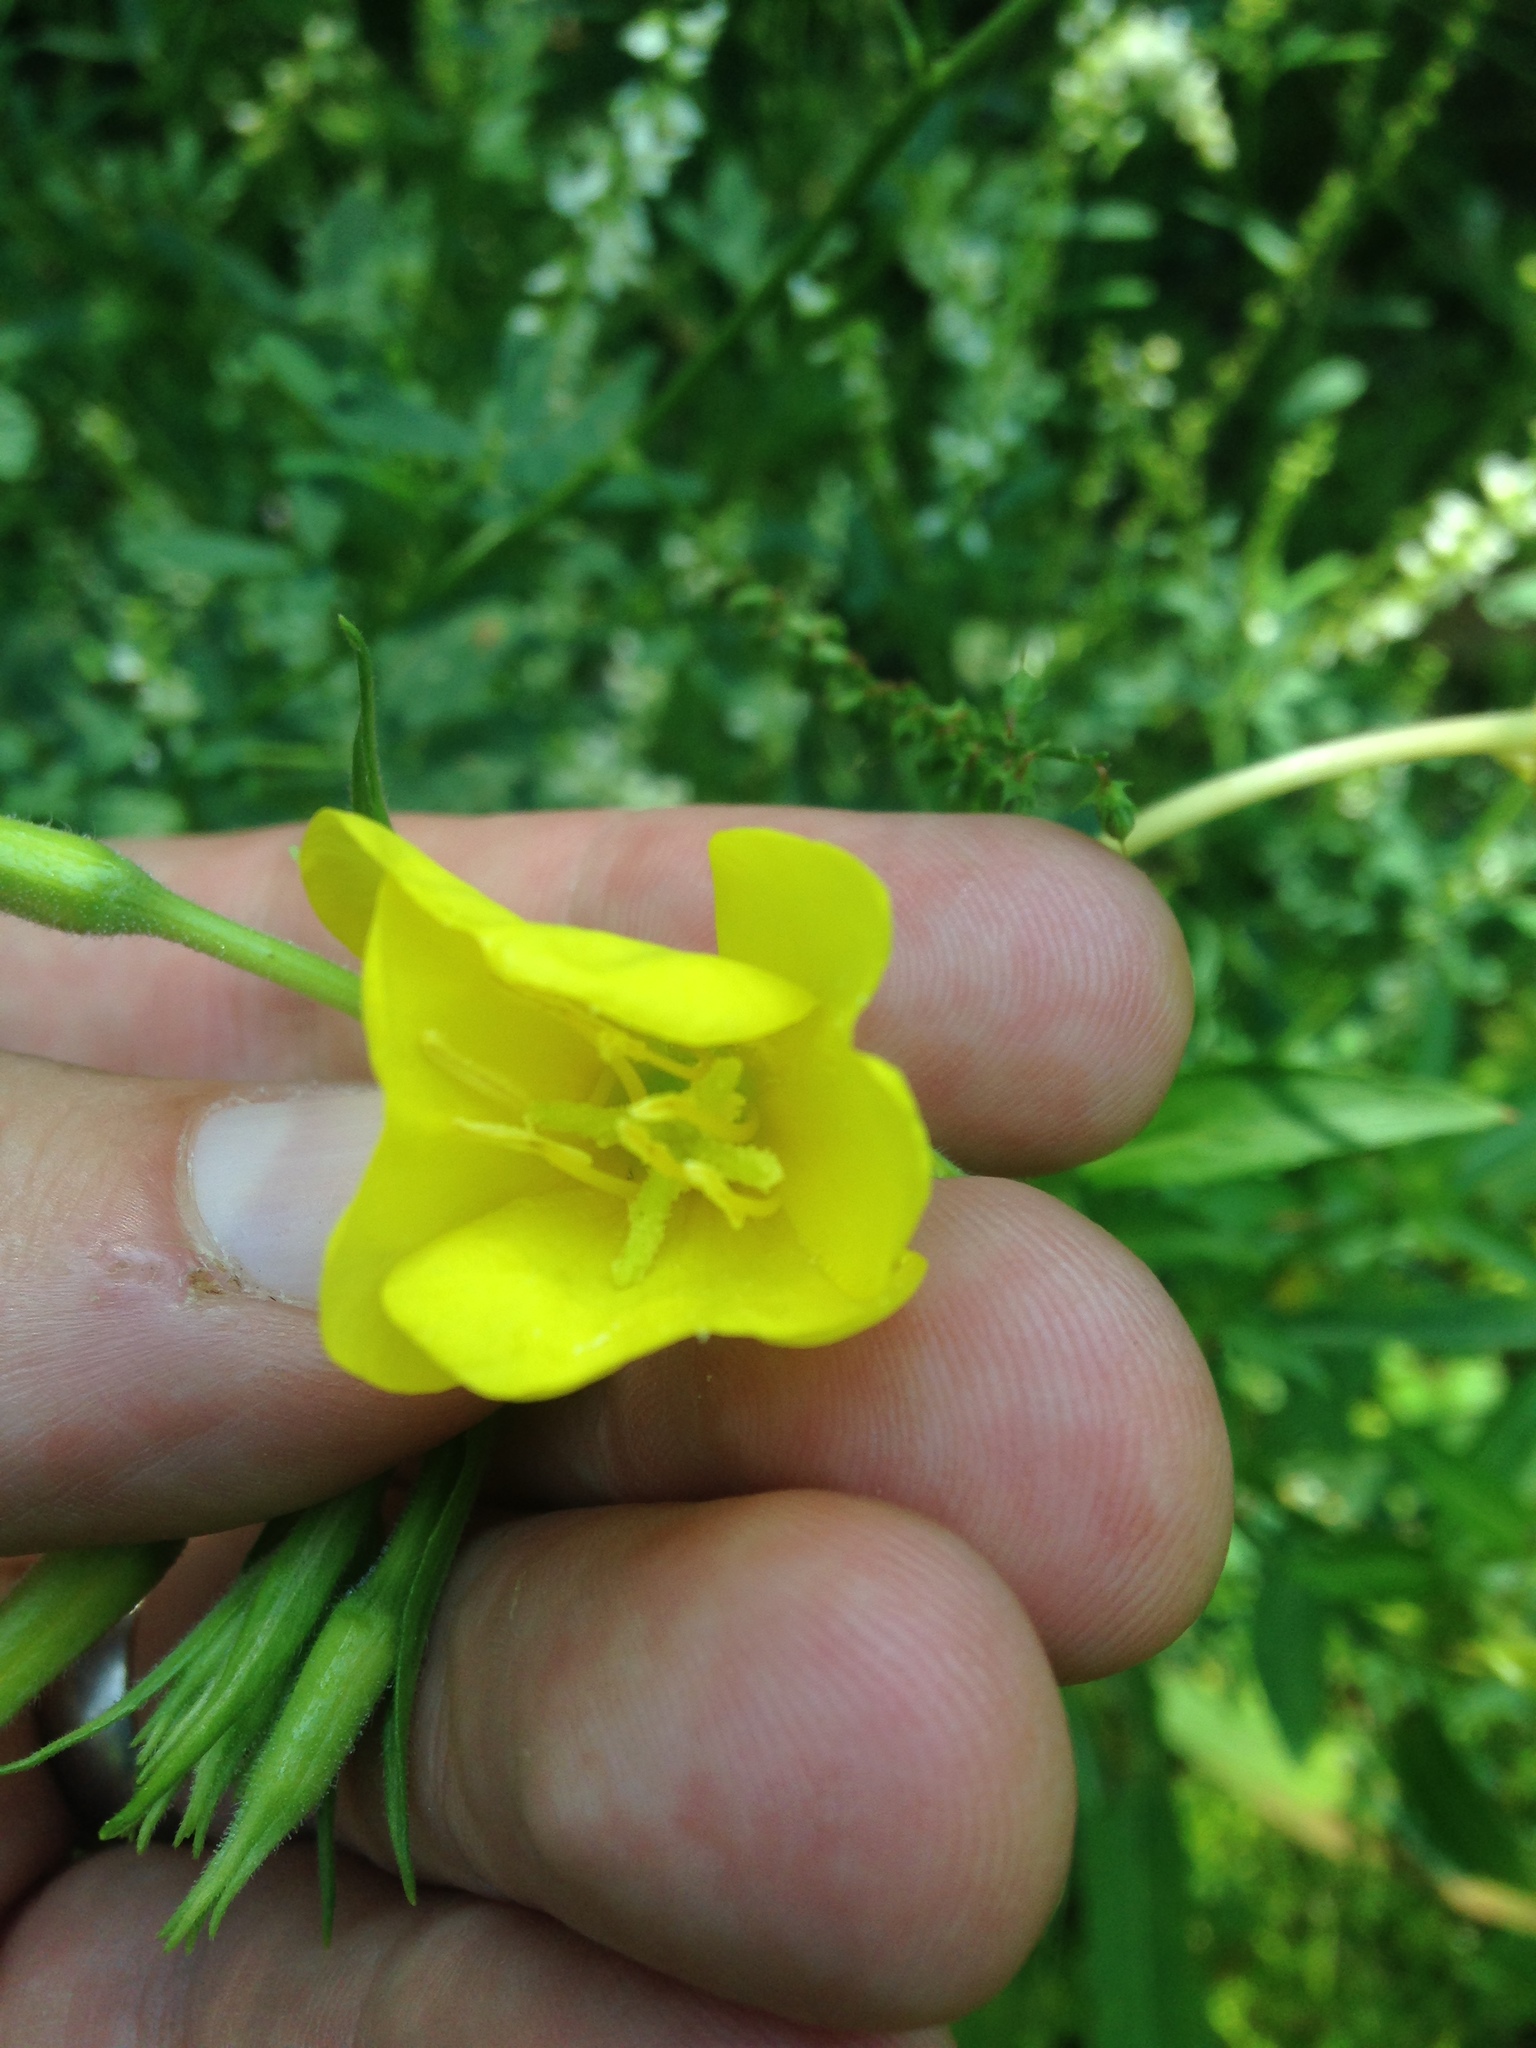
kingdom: Plantae
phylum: Tracheophyta
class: Magnoliopsida
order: Myrtales
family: Onagraceae
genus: Oenothera
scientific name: Oenothera biennis
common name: Common evening-primrose
